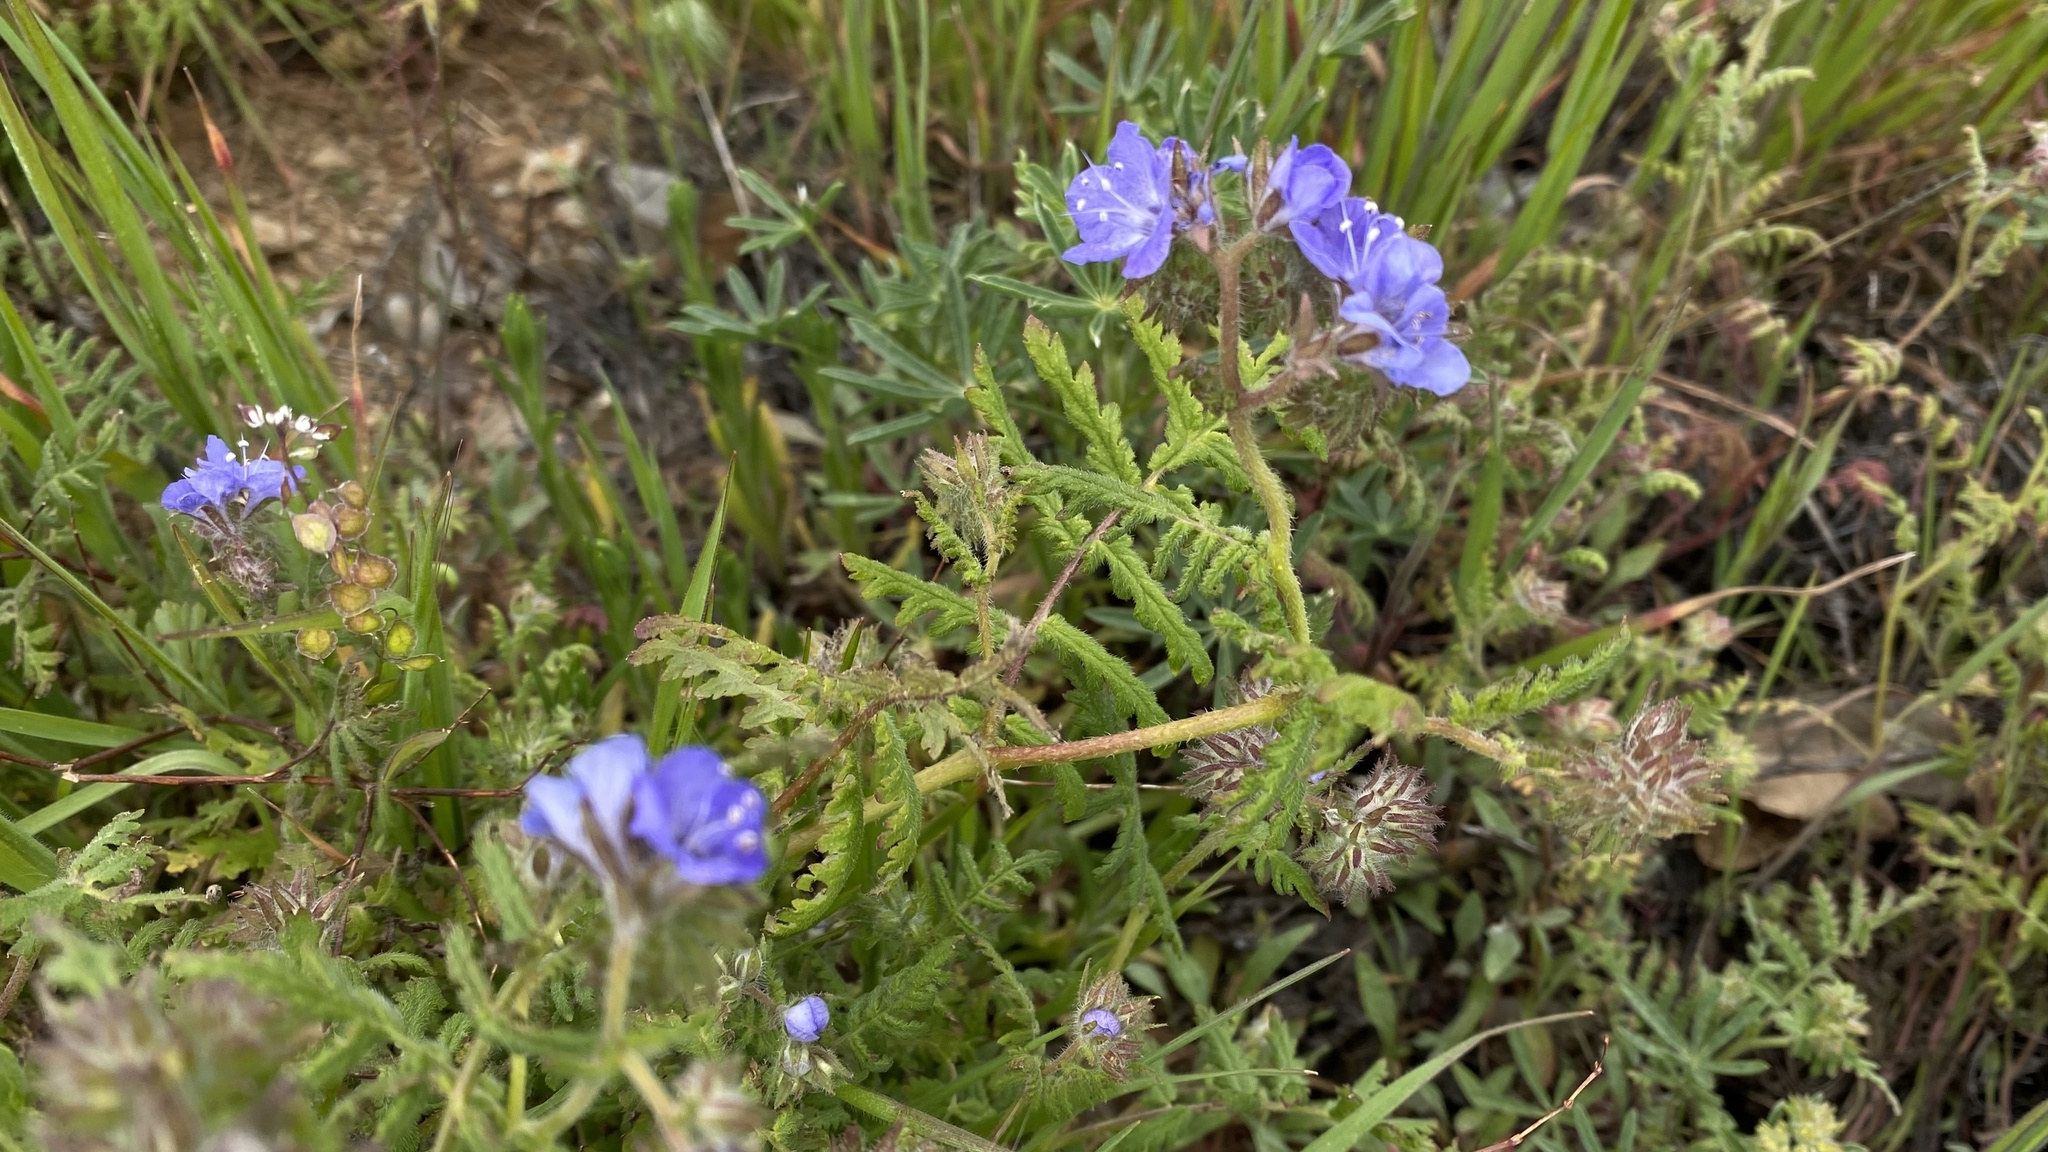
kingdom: Plantae
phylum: Tracheophyta
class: Magnoliopsida
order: Boraginales
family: Hydrophyllaceae
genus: Phacelia
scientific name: Phacelia distans
